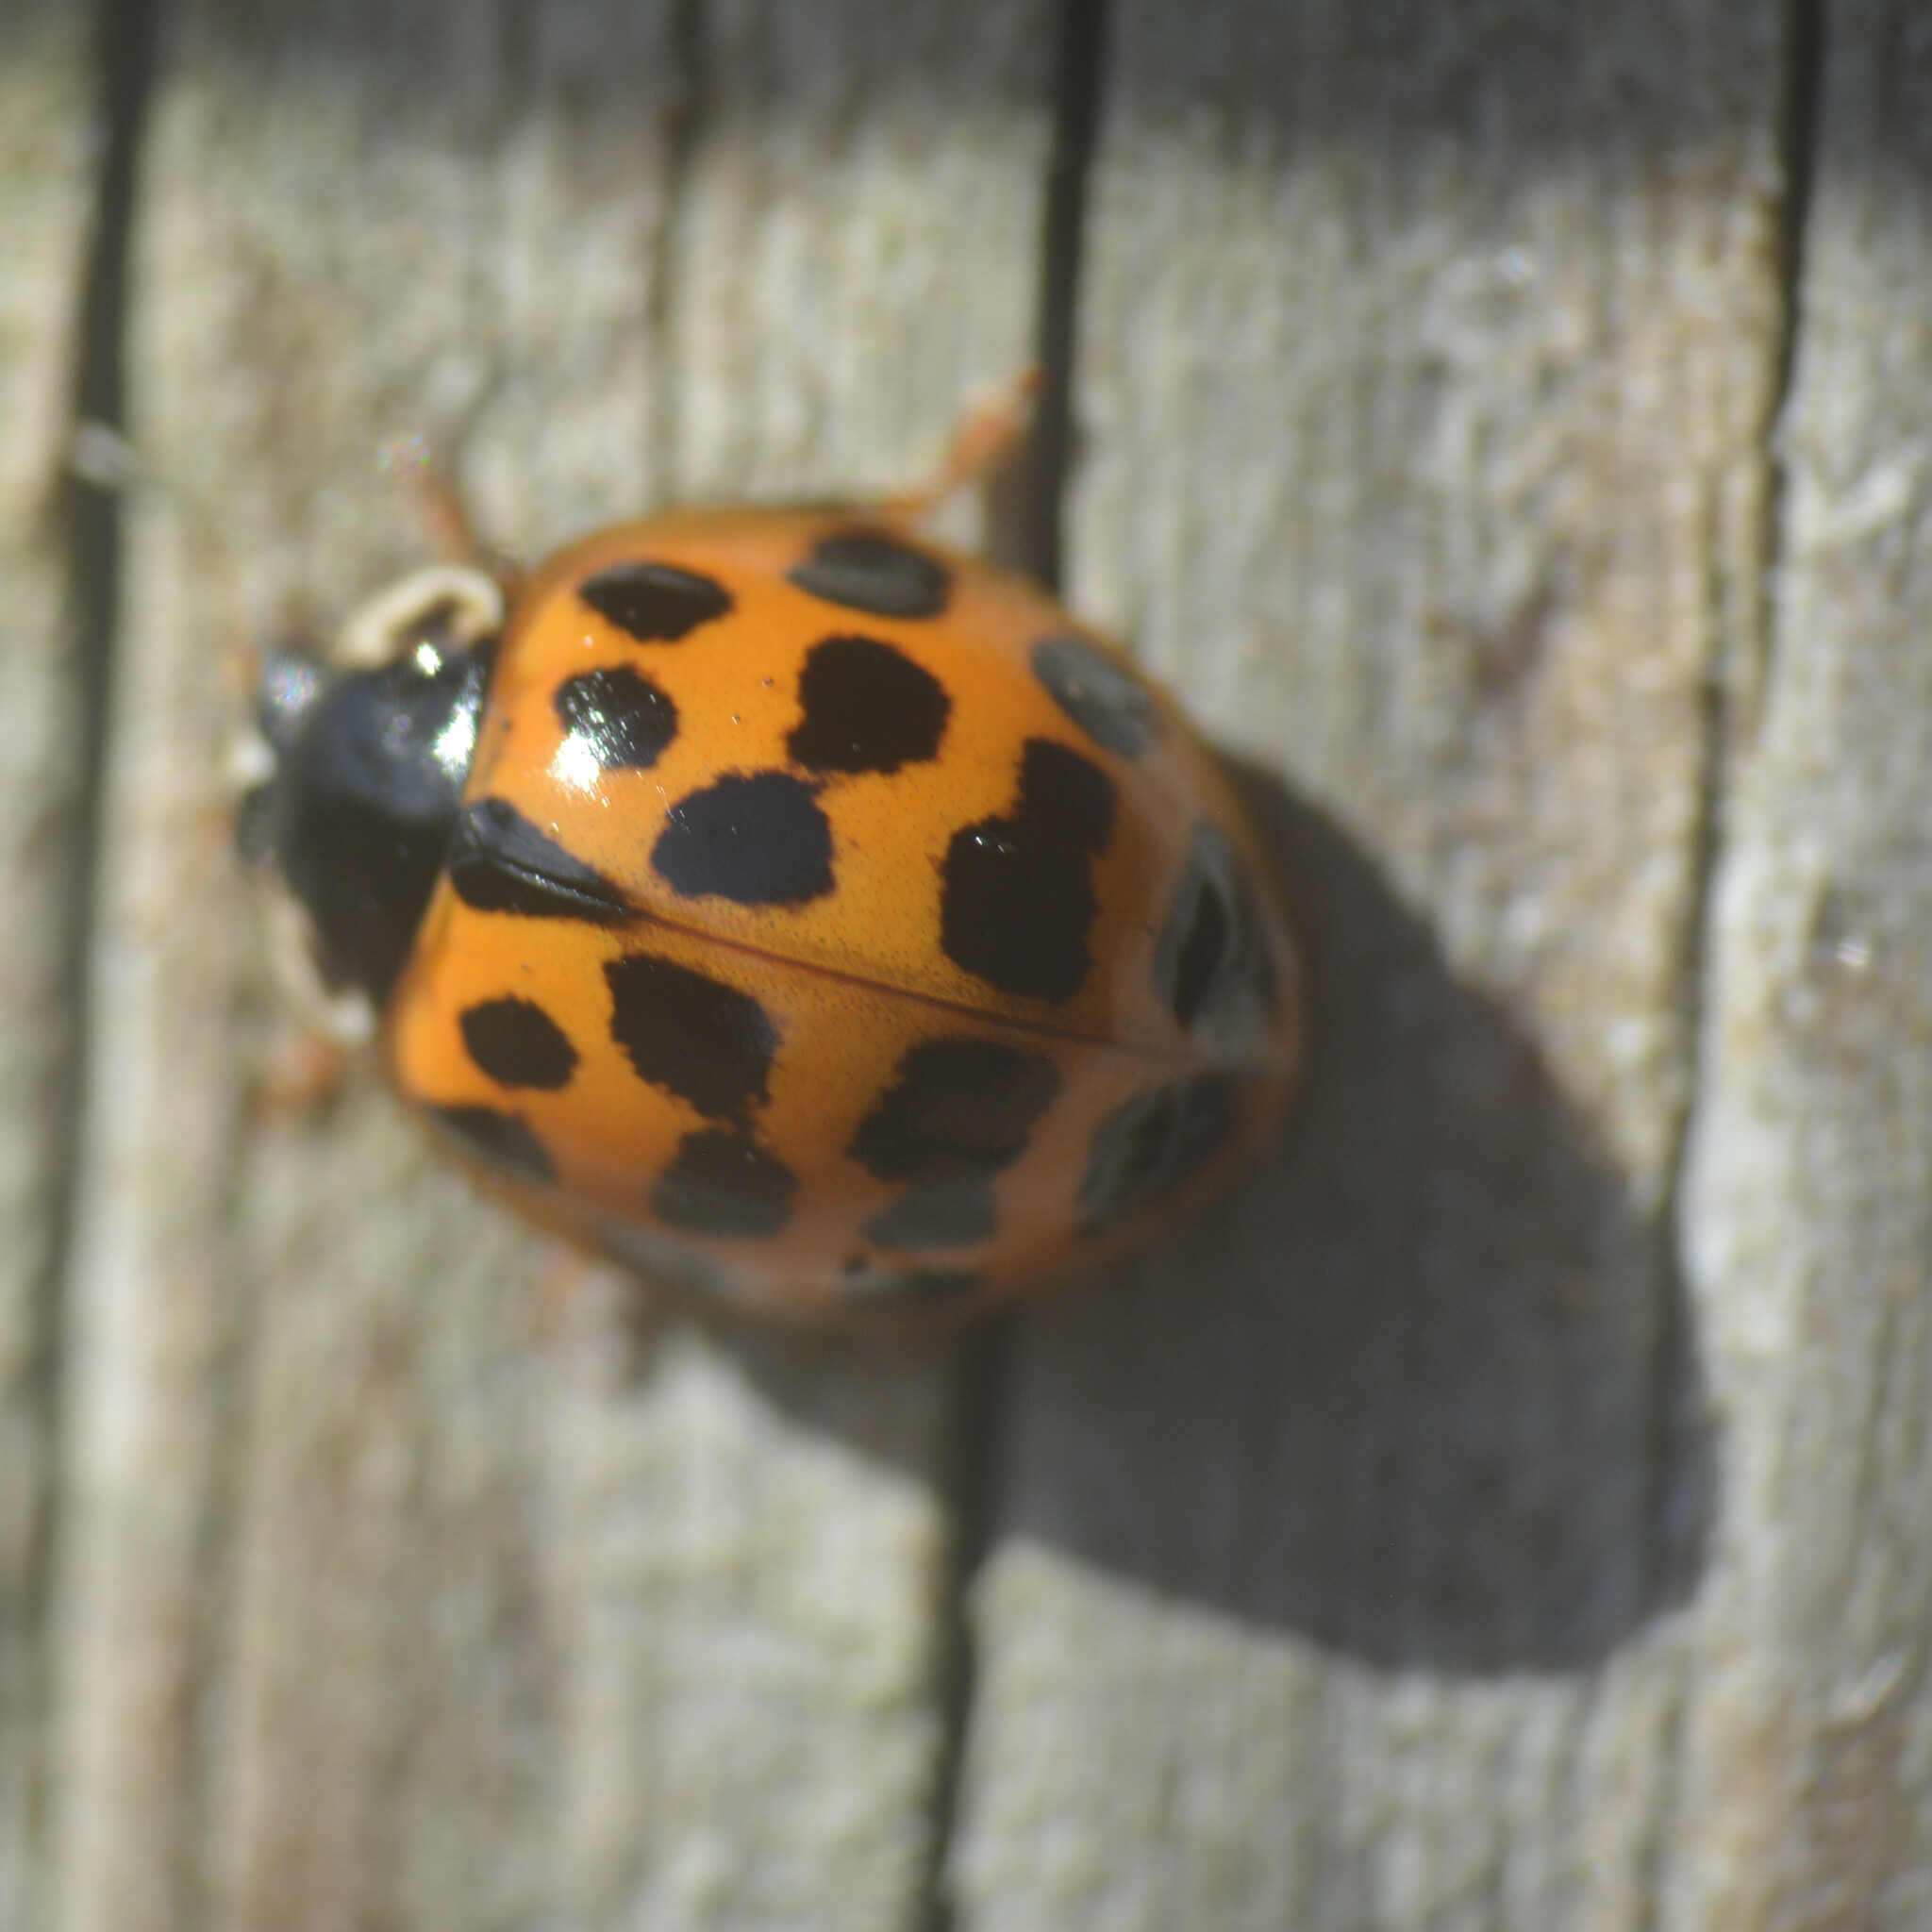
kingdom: Animalia
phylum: Arthropoda
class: Insecta
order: Coleoptera
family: Coccinellidae
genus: Harmonia
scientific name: Harmonia axyridis
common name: Harlequin ladybird
